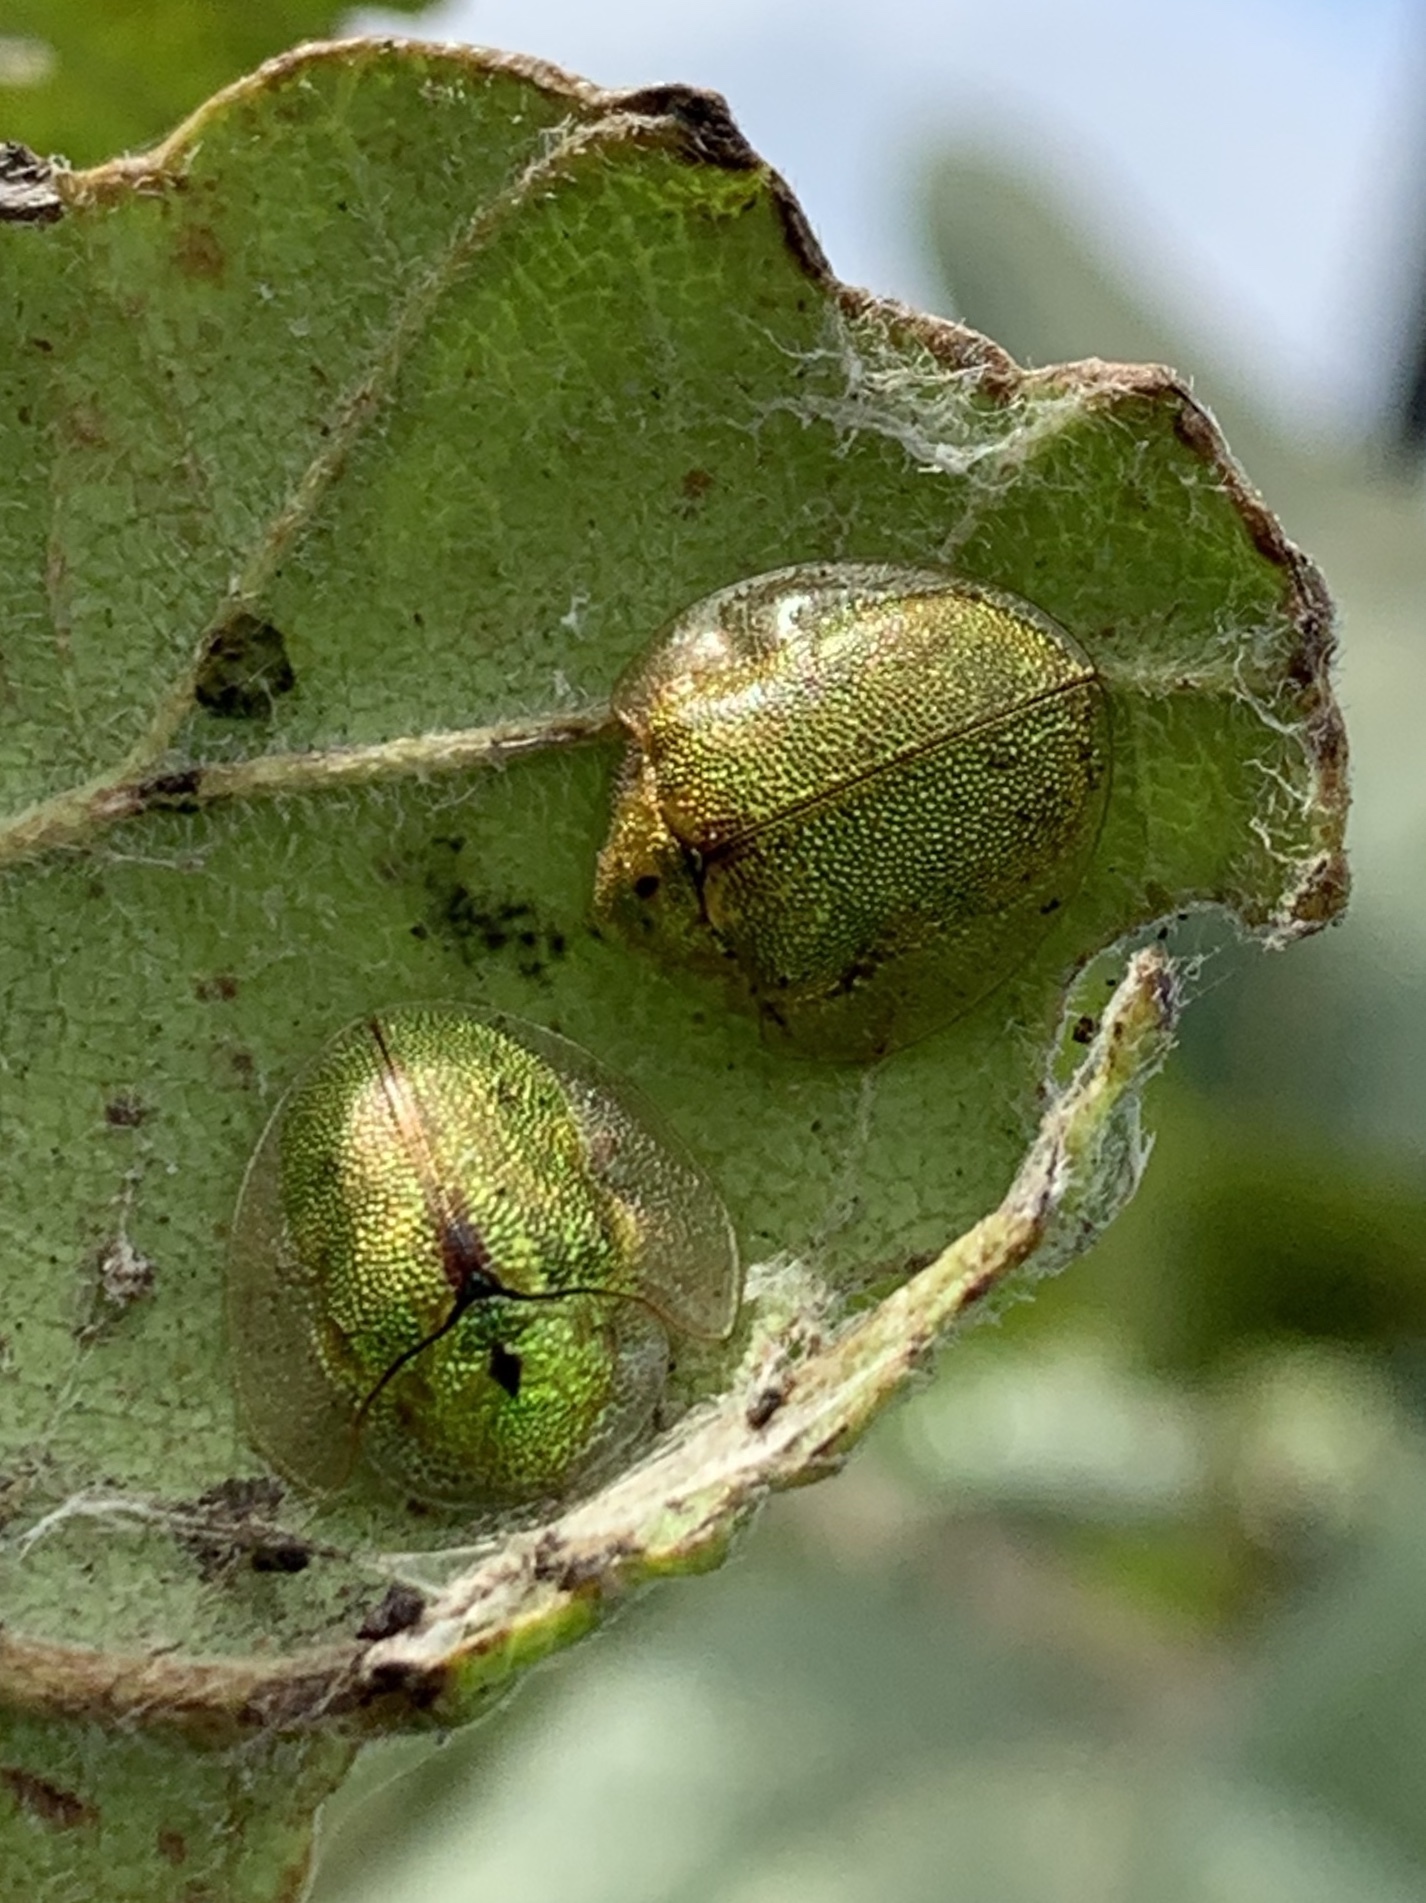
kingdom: Animalia
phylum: Arthropoda
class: Insecta
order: Coleoptera
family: Chrysomelidae
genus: Eurypepla
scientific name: Eurypepla calochroma
